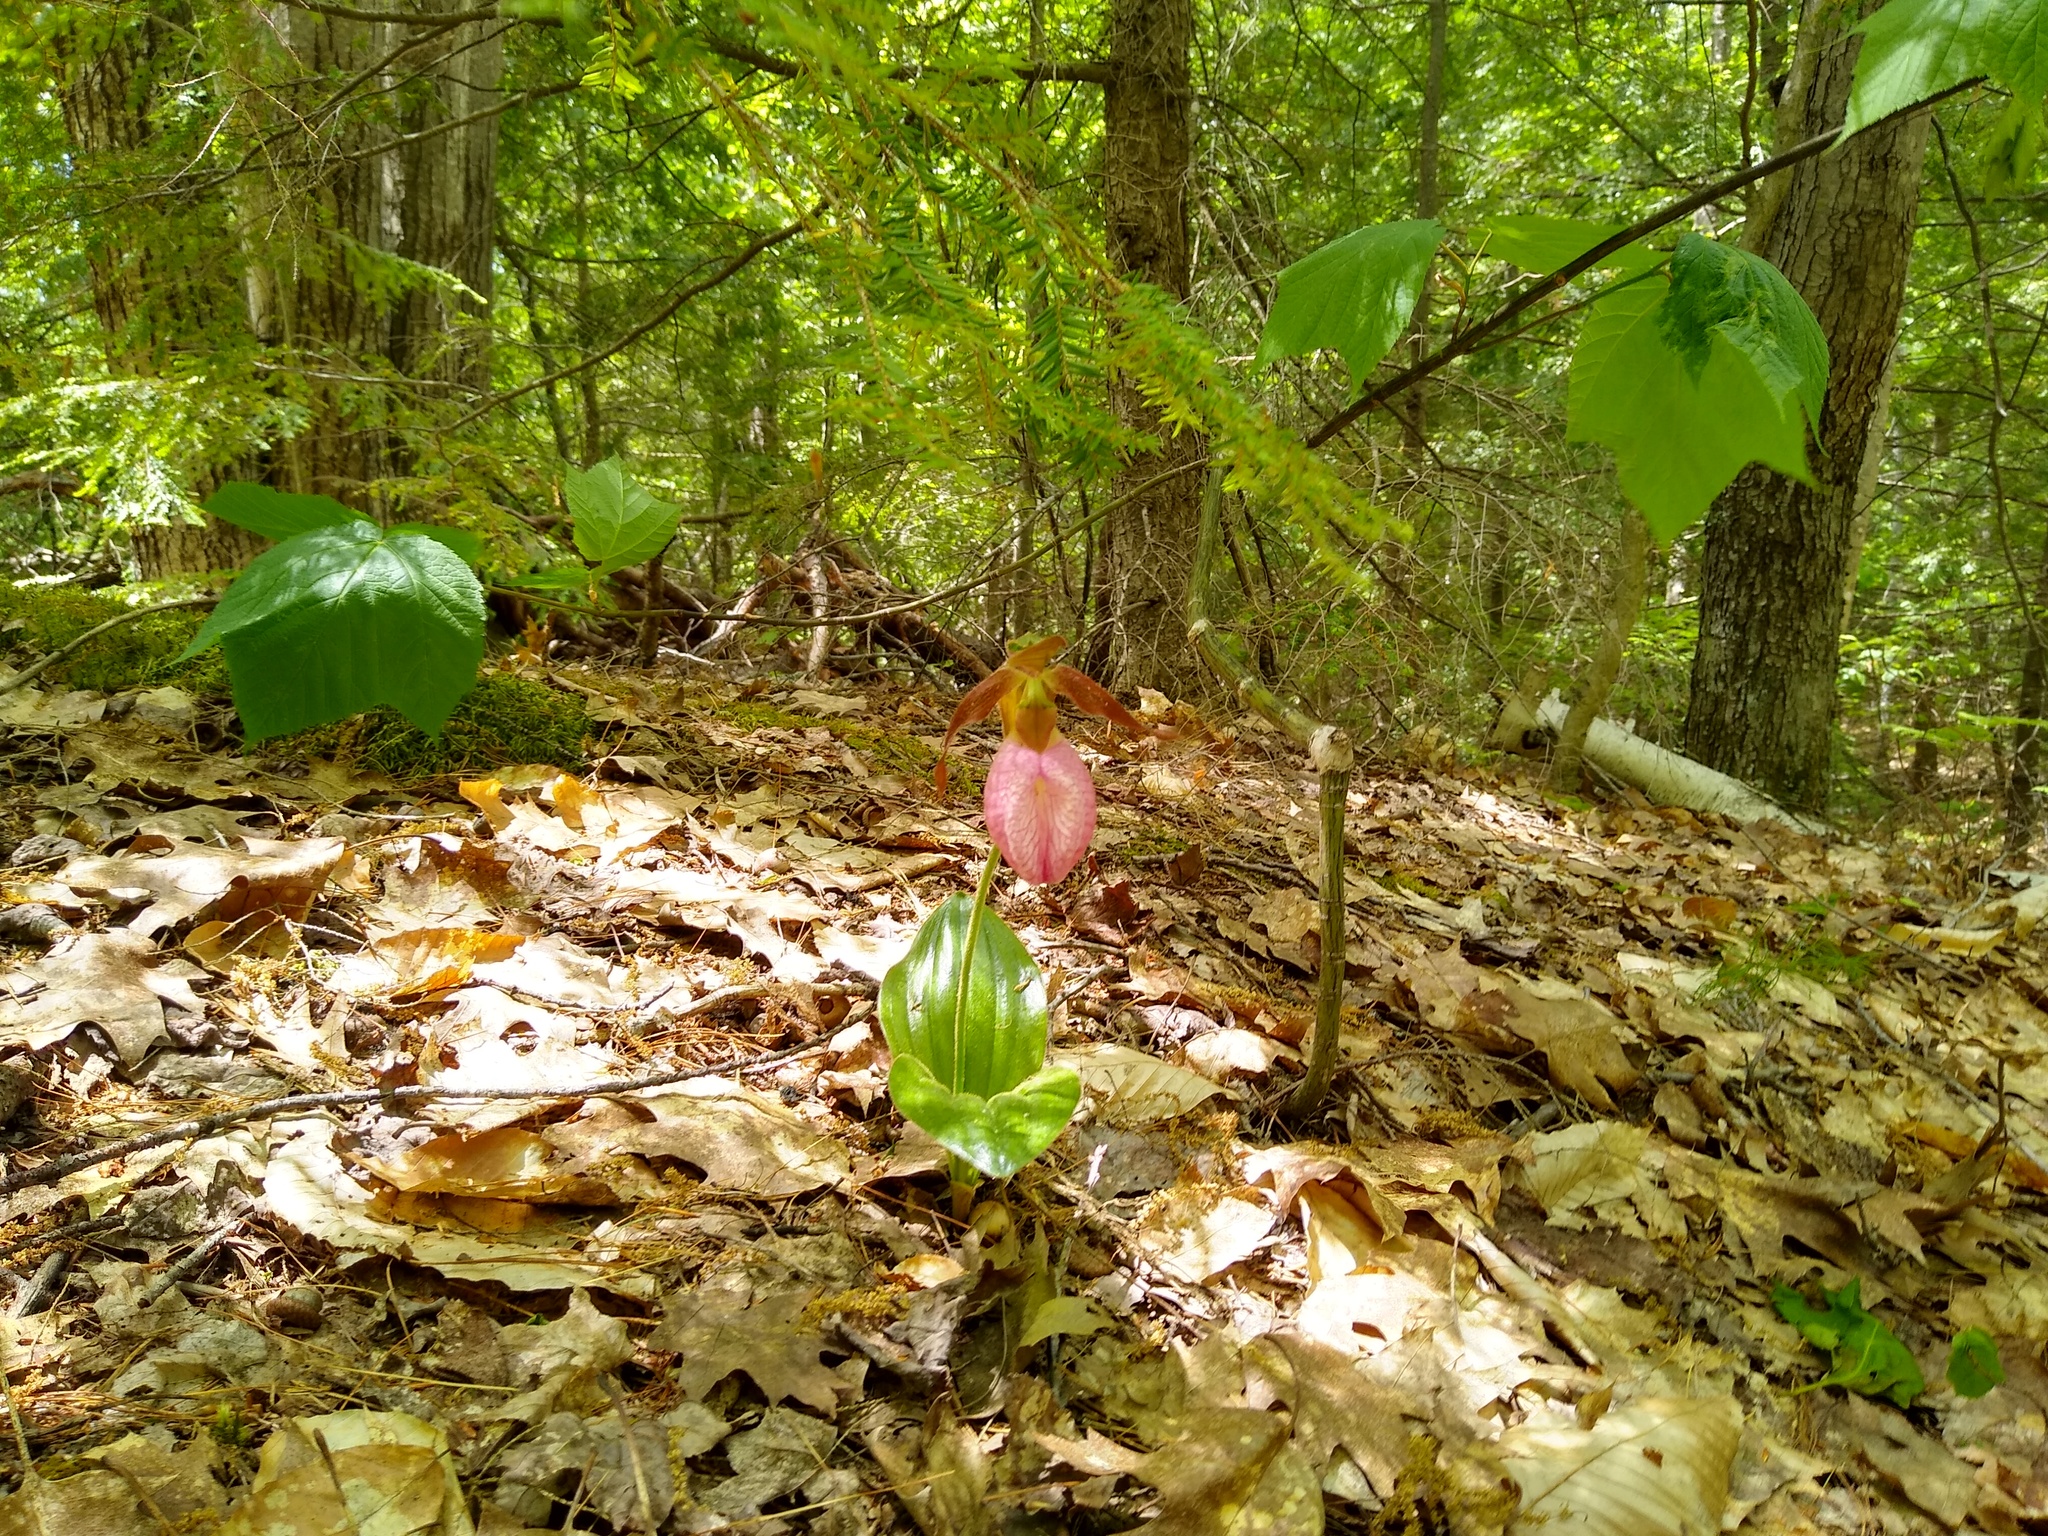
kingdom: Plantae
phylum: Tracheophyta
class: Liliopsida
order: Asparagales
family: Orchidaceae
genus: Cypripedium
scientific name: Cypripedium acaule
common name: Pink lady's-slipper
